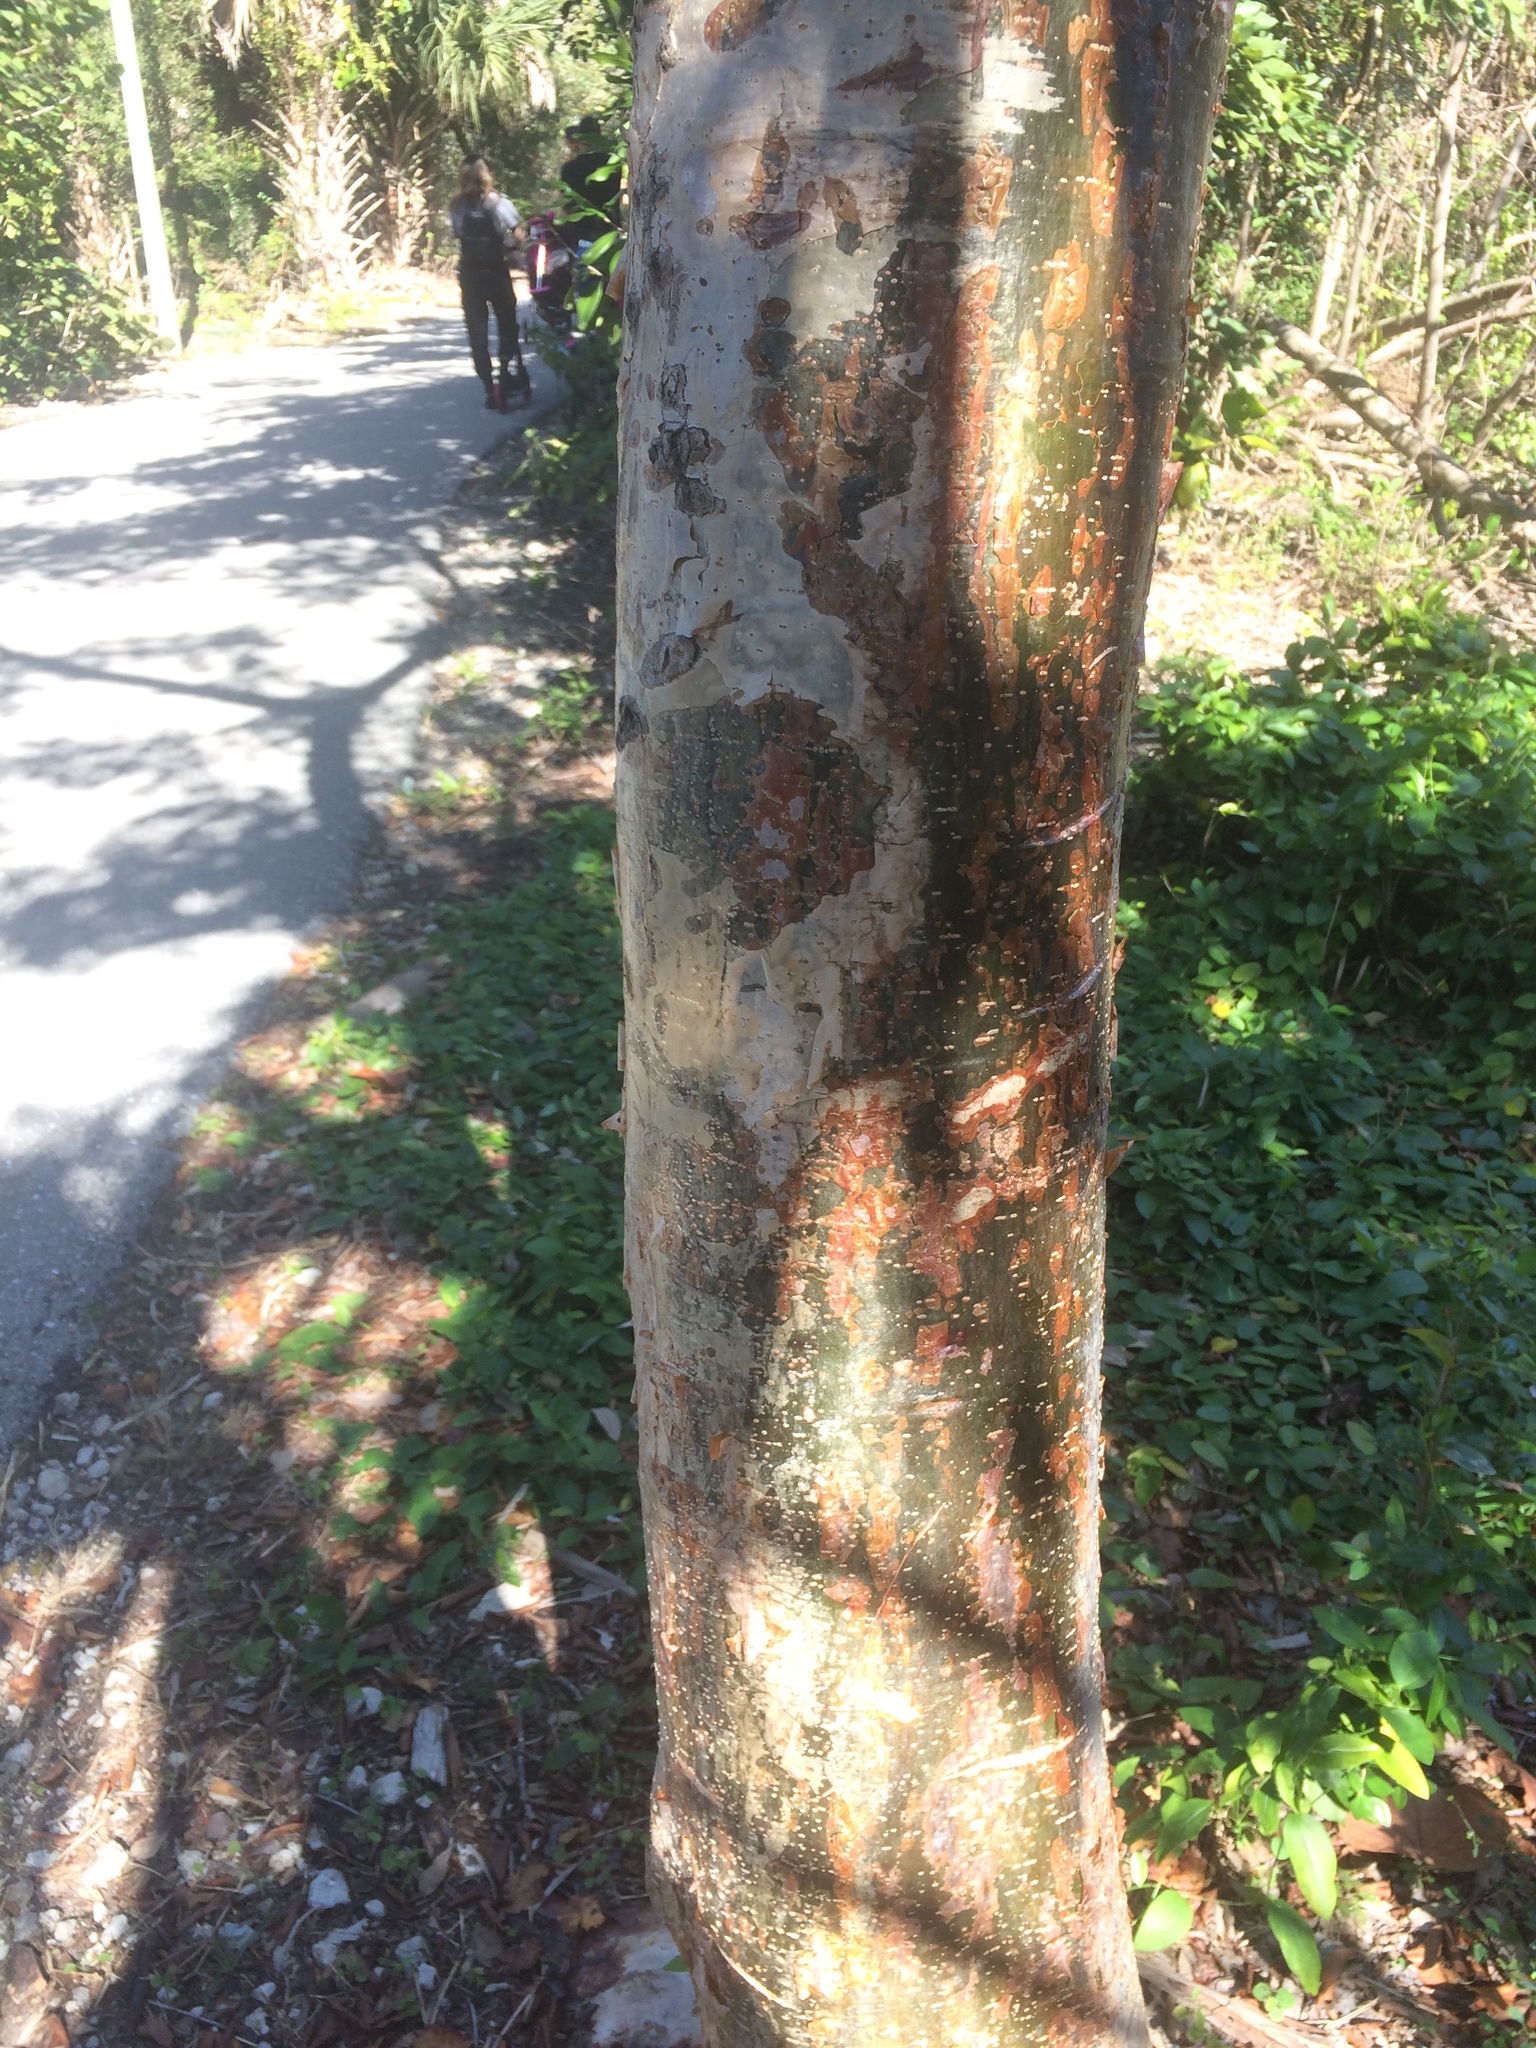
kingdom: Plantae
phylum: Tracheophyta
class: Magnoliopsida
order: Sapindales
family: Burseraceae
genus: Bursera
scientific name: Bursera simaruba
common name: Turpentine tree
